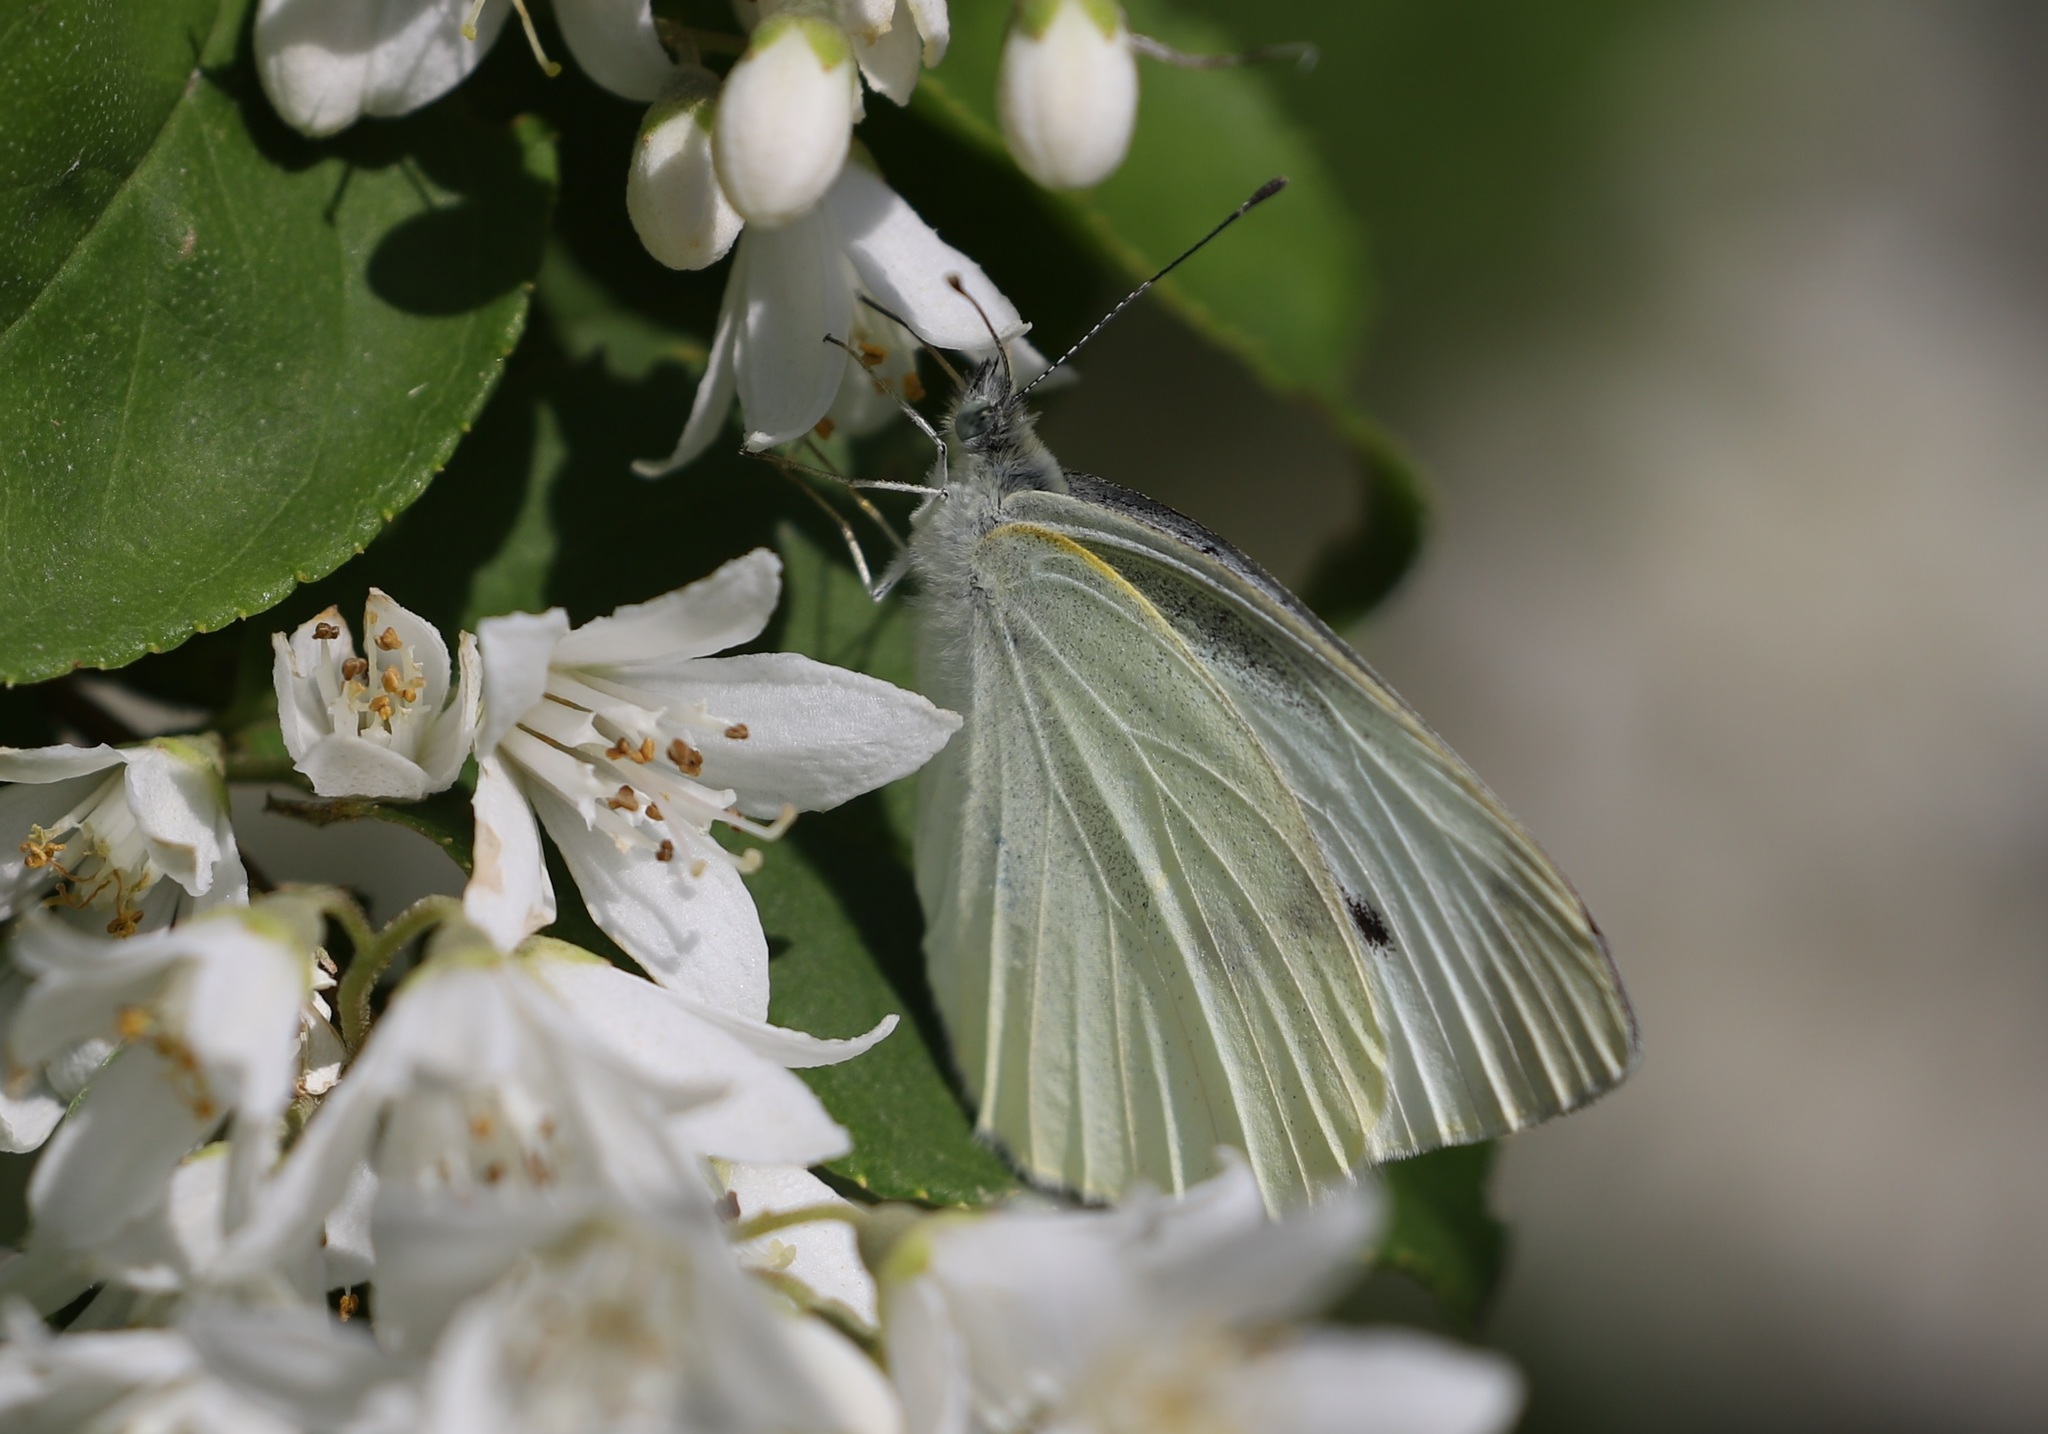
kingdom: Animalia
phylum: Arthropoda
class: Insecta
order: Lepidoptera
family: Pieridae
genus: Pieris
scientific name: Pieris rapae
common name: Small white
